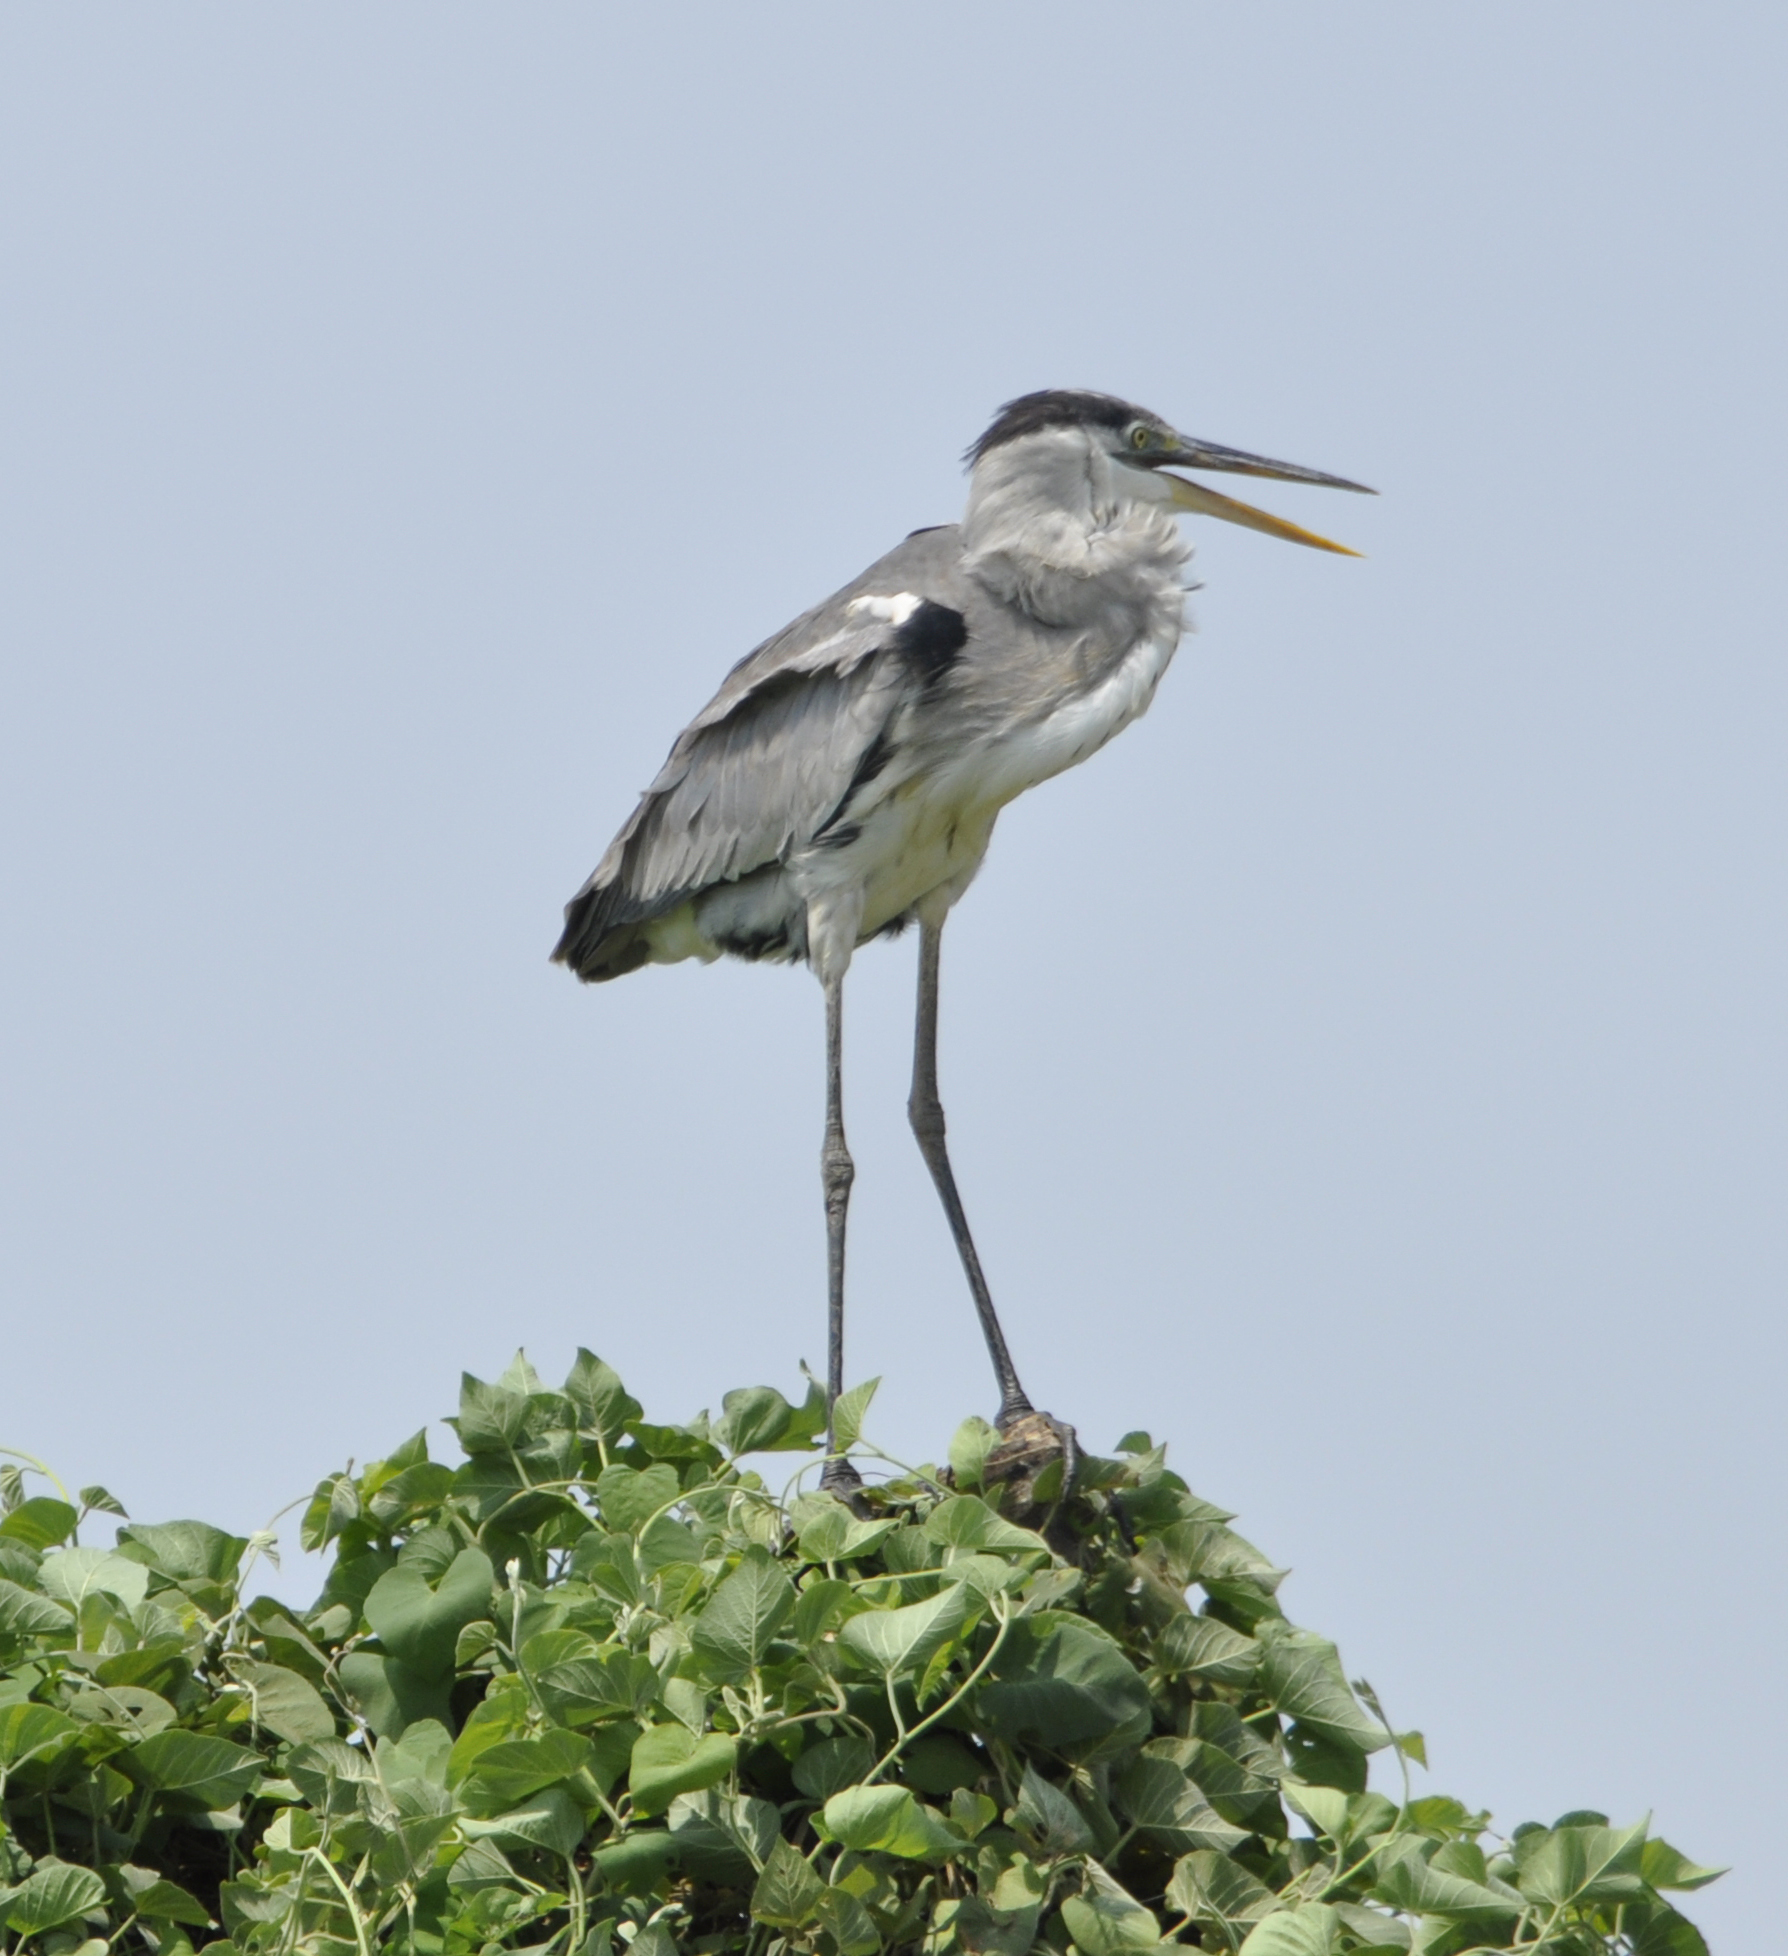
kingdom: Animalia
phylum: Chordata
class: Aves
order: Pelecaniformes
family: Ardeidae
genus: Ardea
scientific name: Ardea cocoi
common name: Cocoi heron
